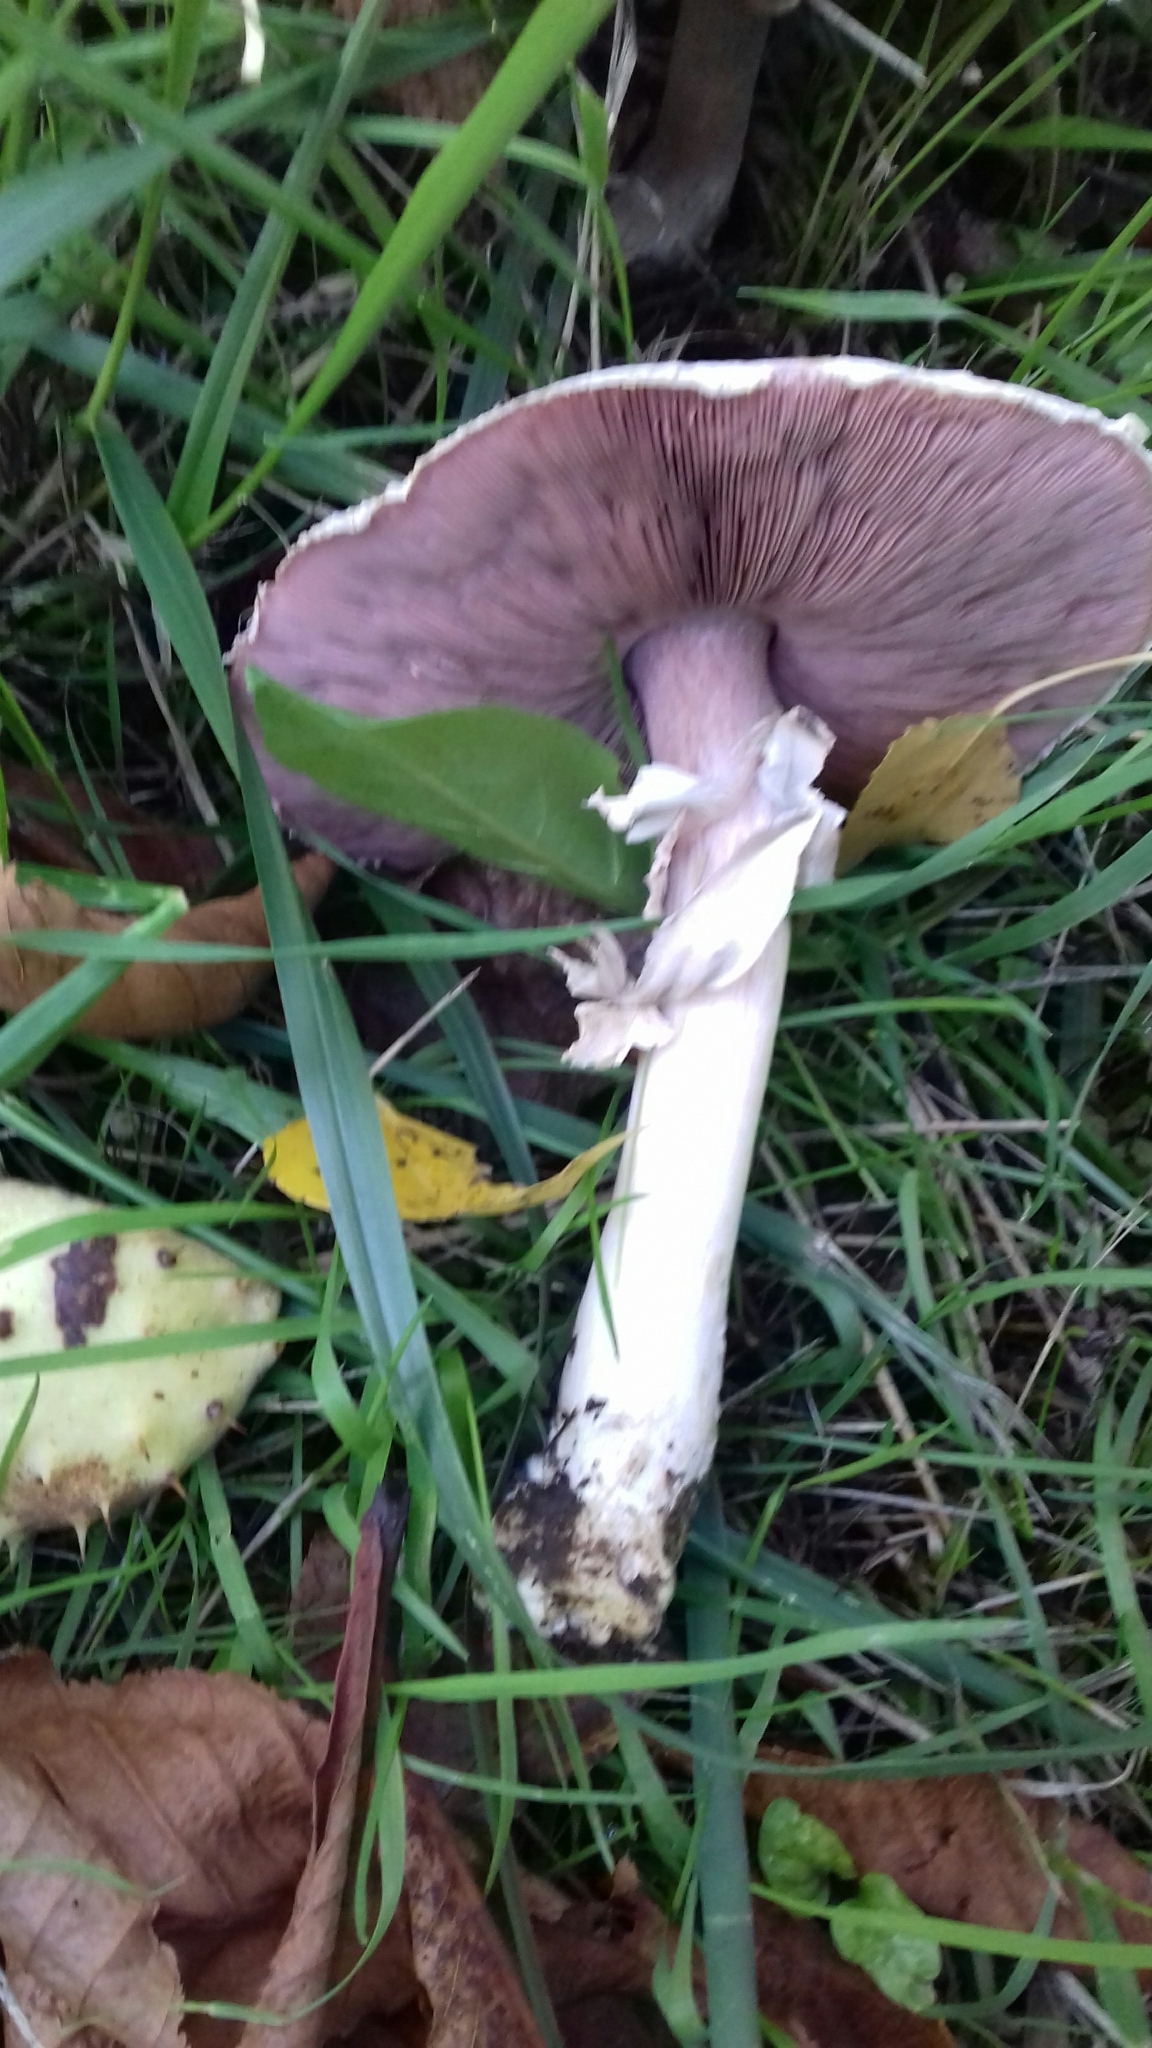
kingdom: Fungi
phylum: Basidiomycota
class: Agaricomycetes
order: Agaricales
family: Agaricaceae
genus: Agaricus
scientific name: Agaricus campestris
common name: Field mushroom
